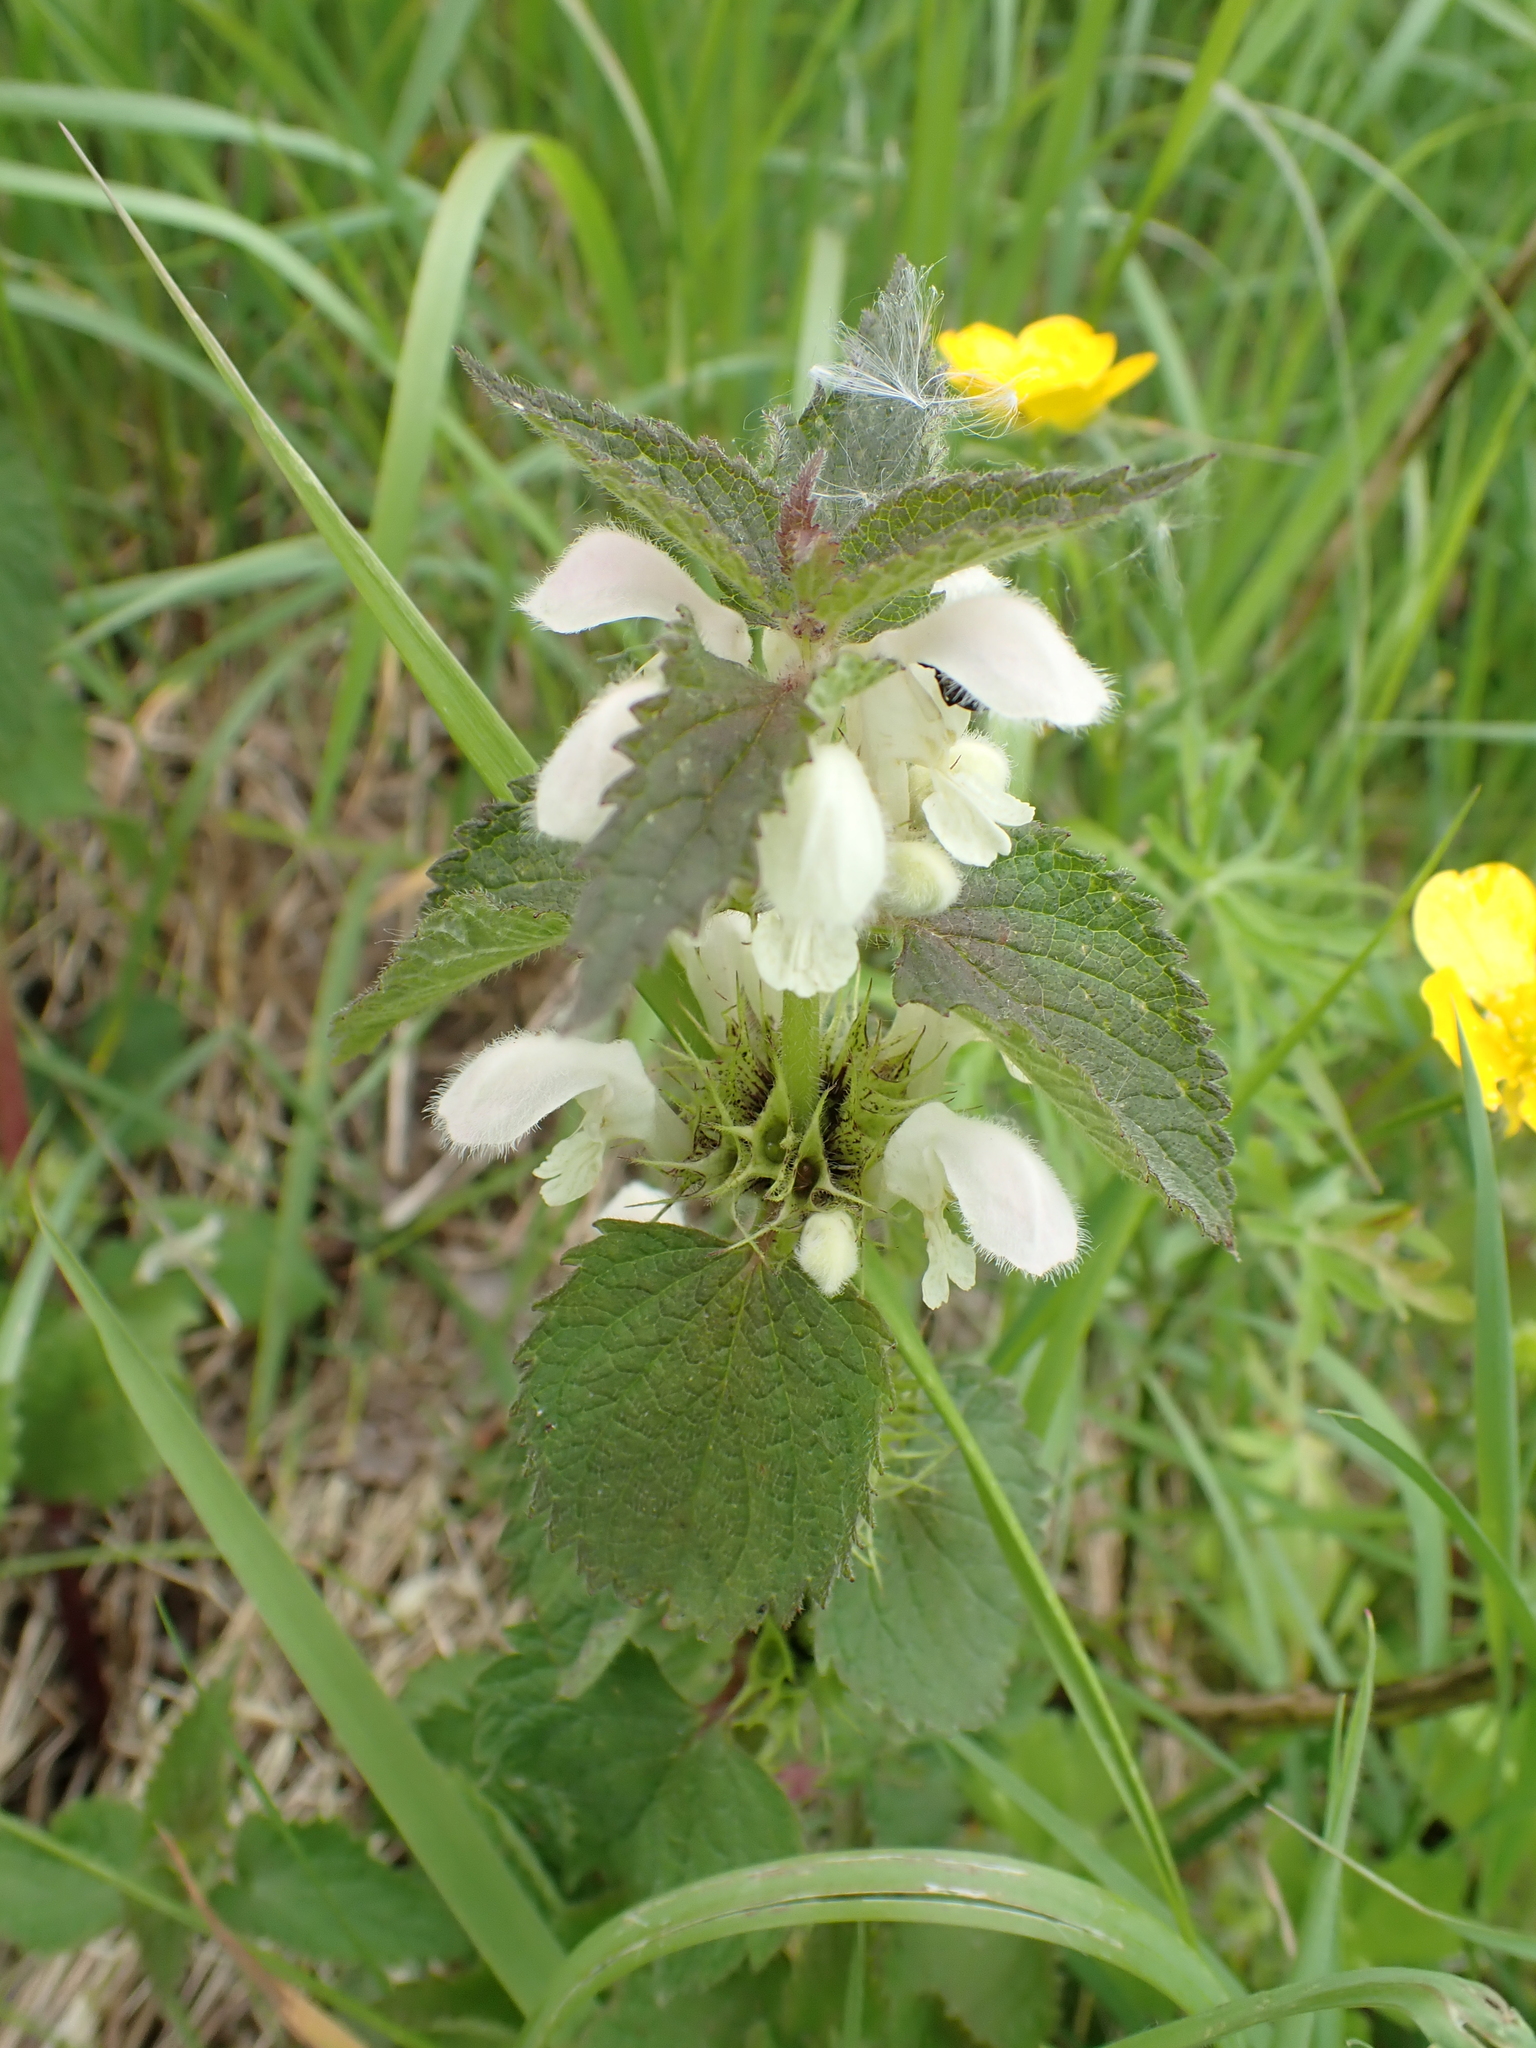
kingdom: Plantae
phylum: Tracheophyta
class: Magnoliopsida
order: Lamiales
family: Lamiaceae
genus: Lamium
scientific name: Lamium album
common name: White dead-nettle
